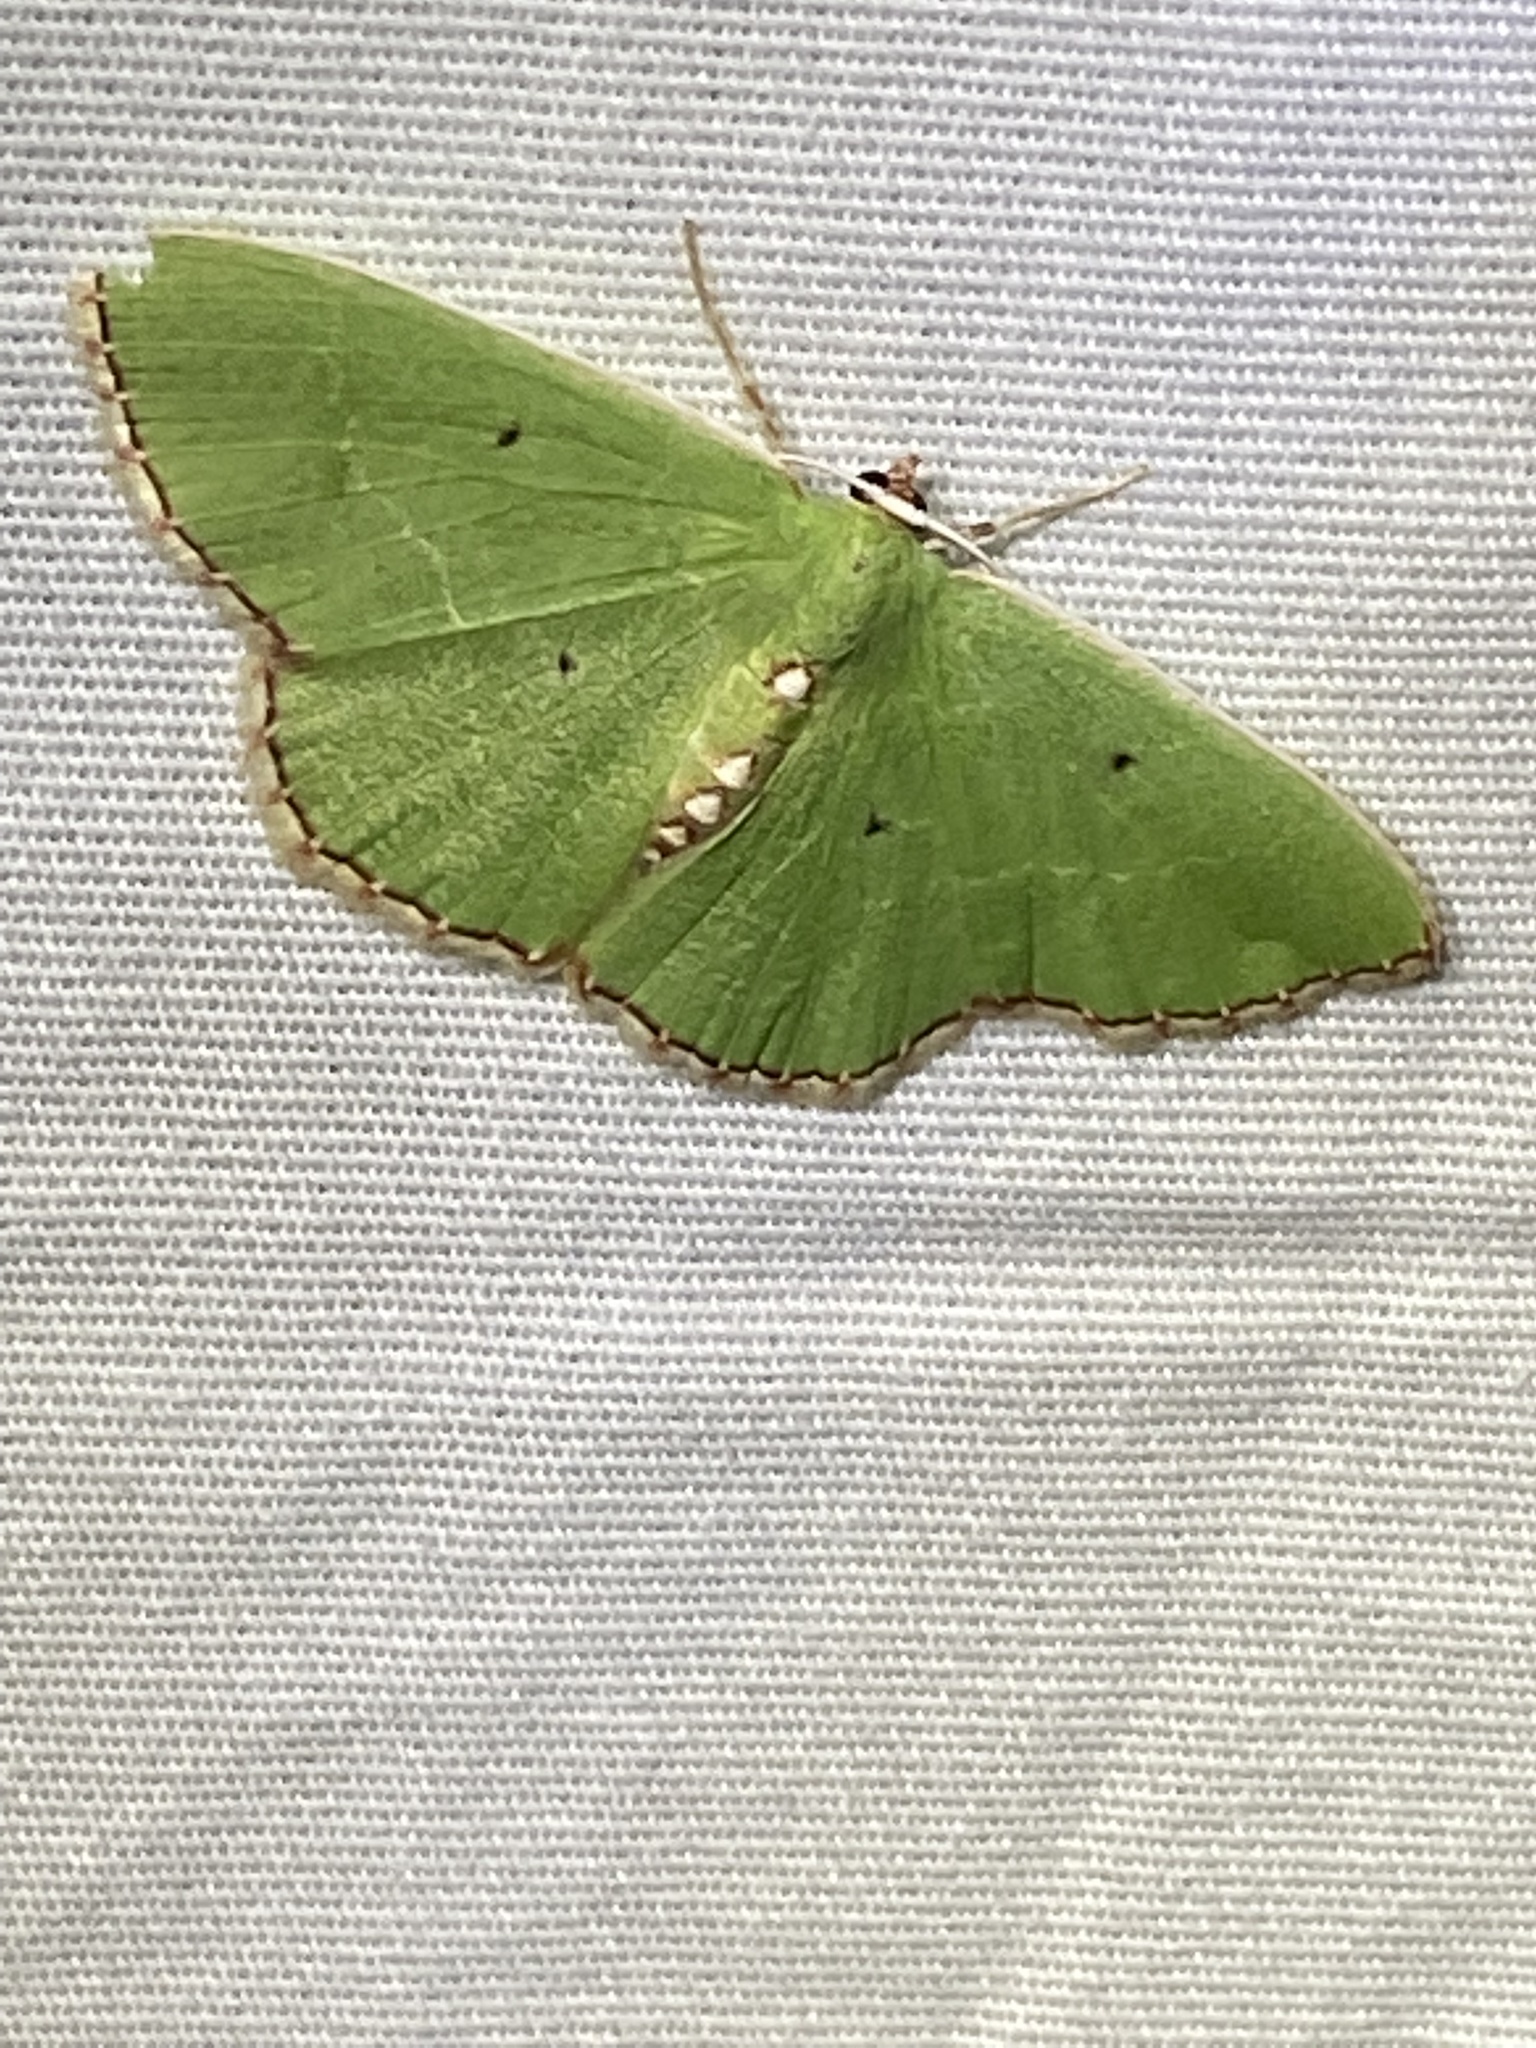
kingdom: Animalia
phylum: Arthropoda
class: Insecta
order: Lepidoptera
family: Geometridae
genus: Nemoria
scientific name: Nemoria lixaria
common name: Red-bordered emerald
